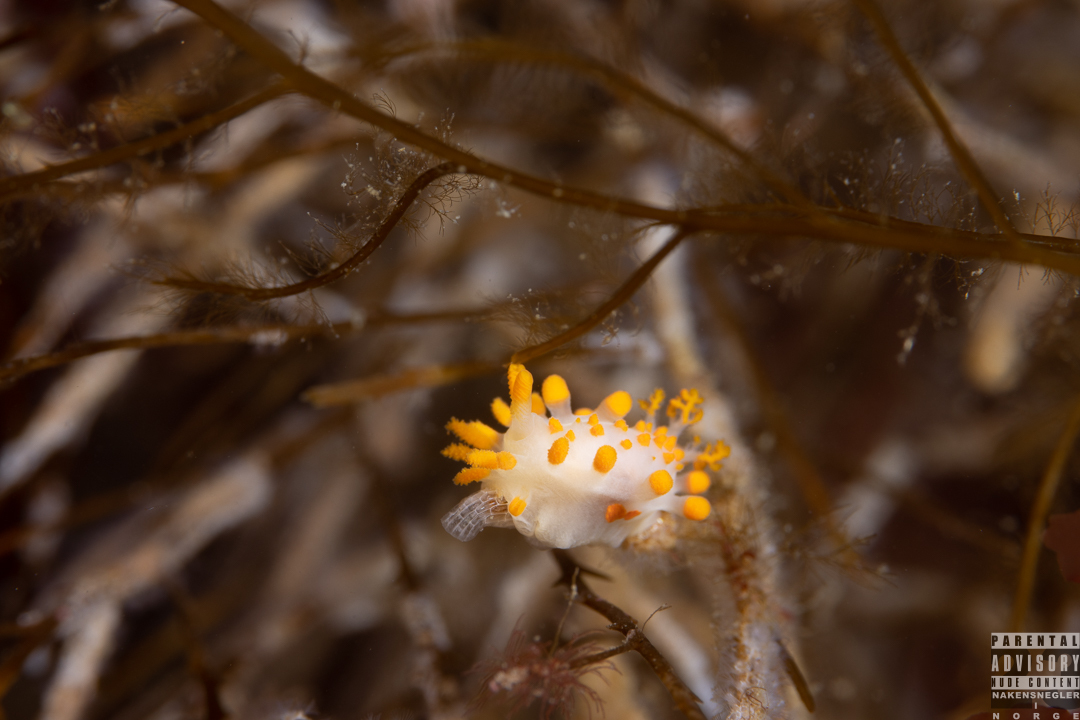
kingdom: Animalia
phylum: Mollusca
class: Gastropoda
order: Nudibranchia
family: Polyceridae
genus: Limacia
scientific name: Limacia clavigera
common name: Orange-clubbed sea slug
